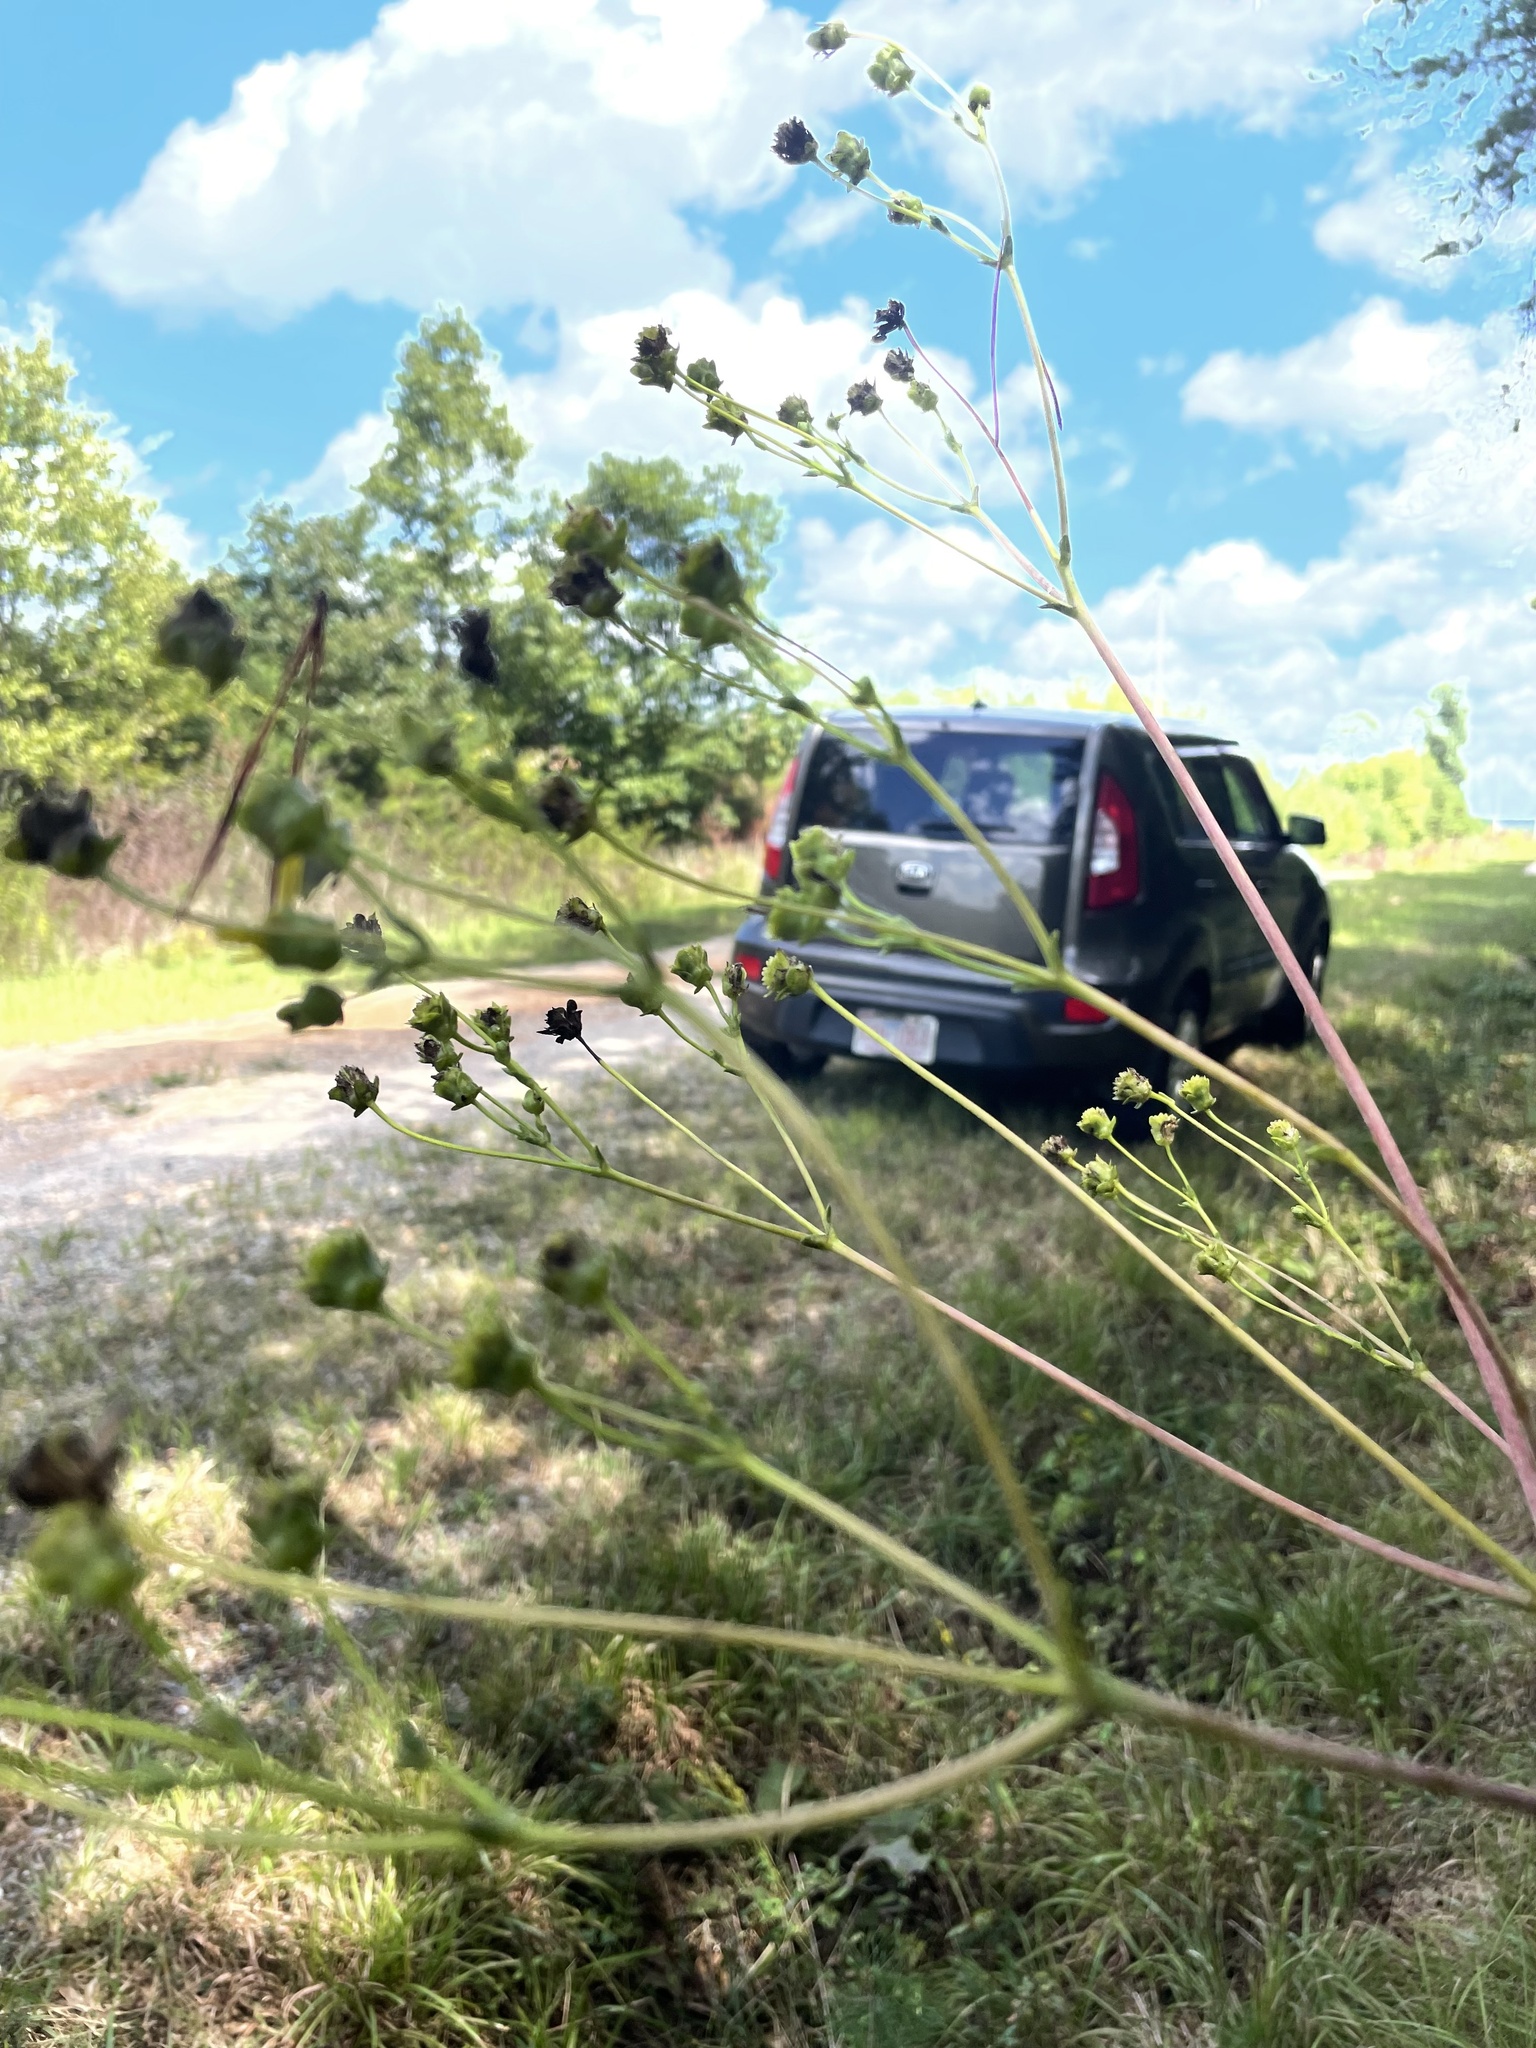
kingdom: Plantae
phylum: Tracheophyta
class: Magnoliopsida
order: Asterales
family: Asteraceae
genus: Silphium
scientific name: Silphium compositum
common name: Lesser basal-leaf rosinweed
